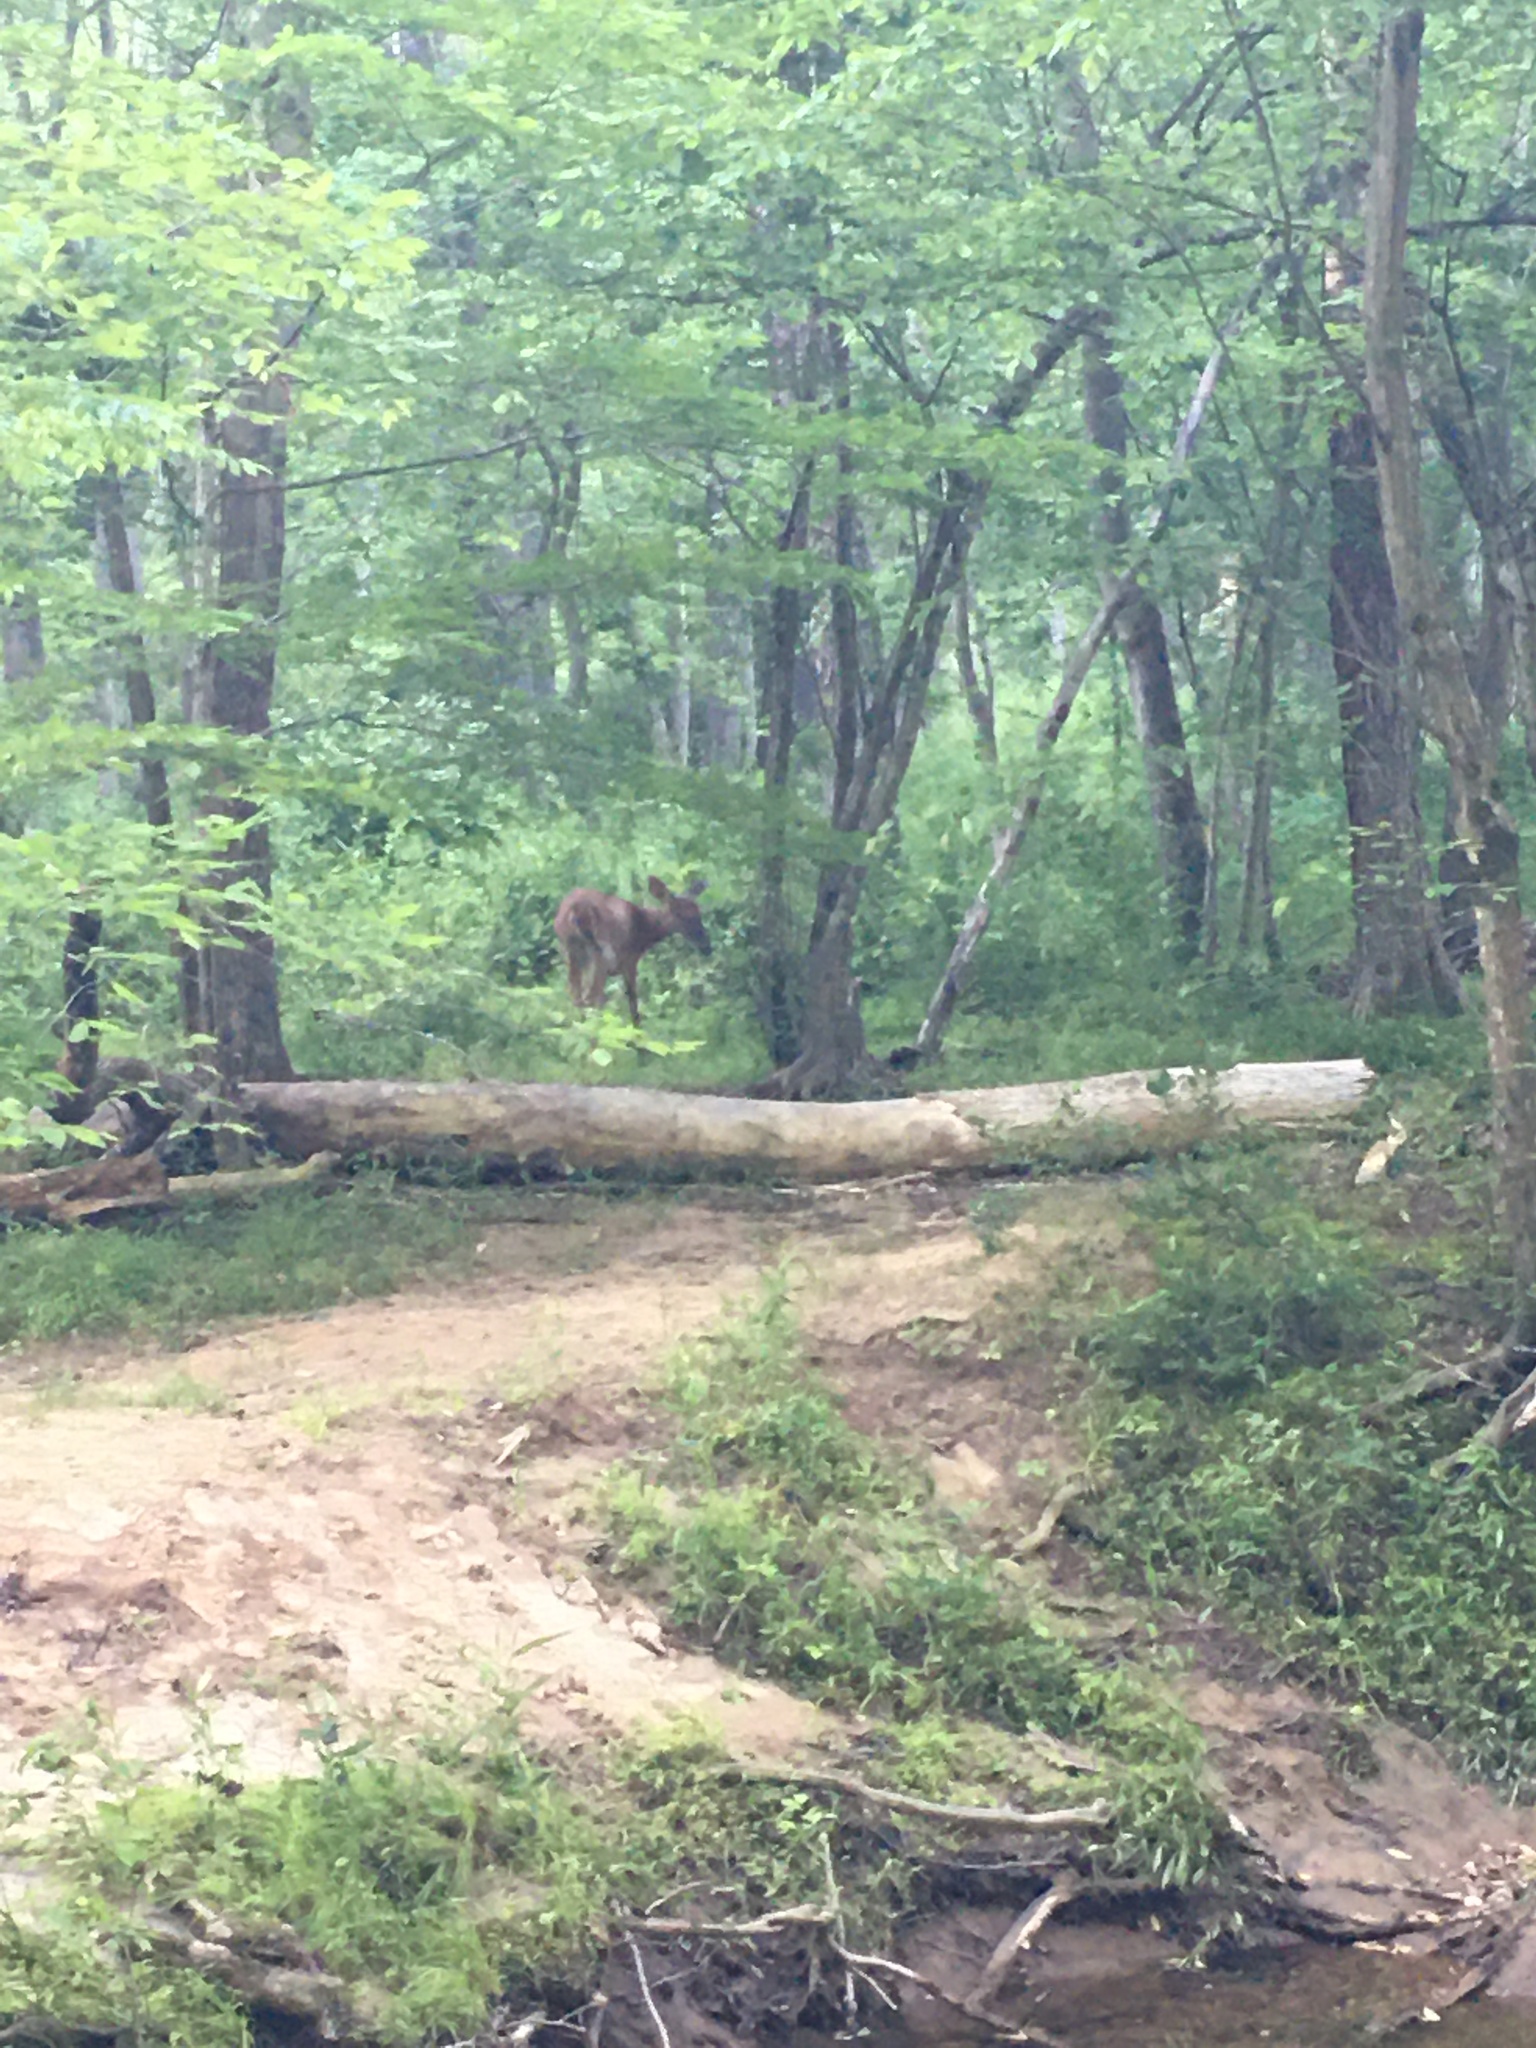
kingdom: Animalia
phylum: Chordata
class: Mammalia
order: Artiodactyla
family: Cervidae
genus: Odocoileus
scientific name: Odocoileus virginianus
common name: White-tailed deer
